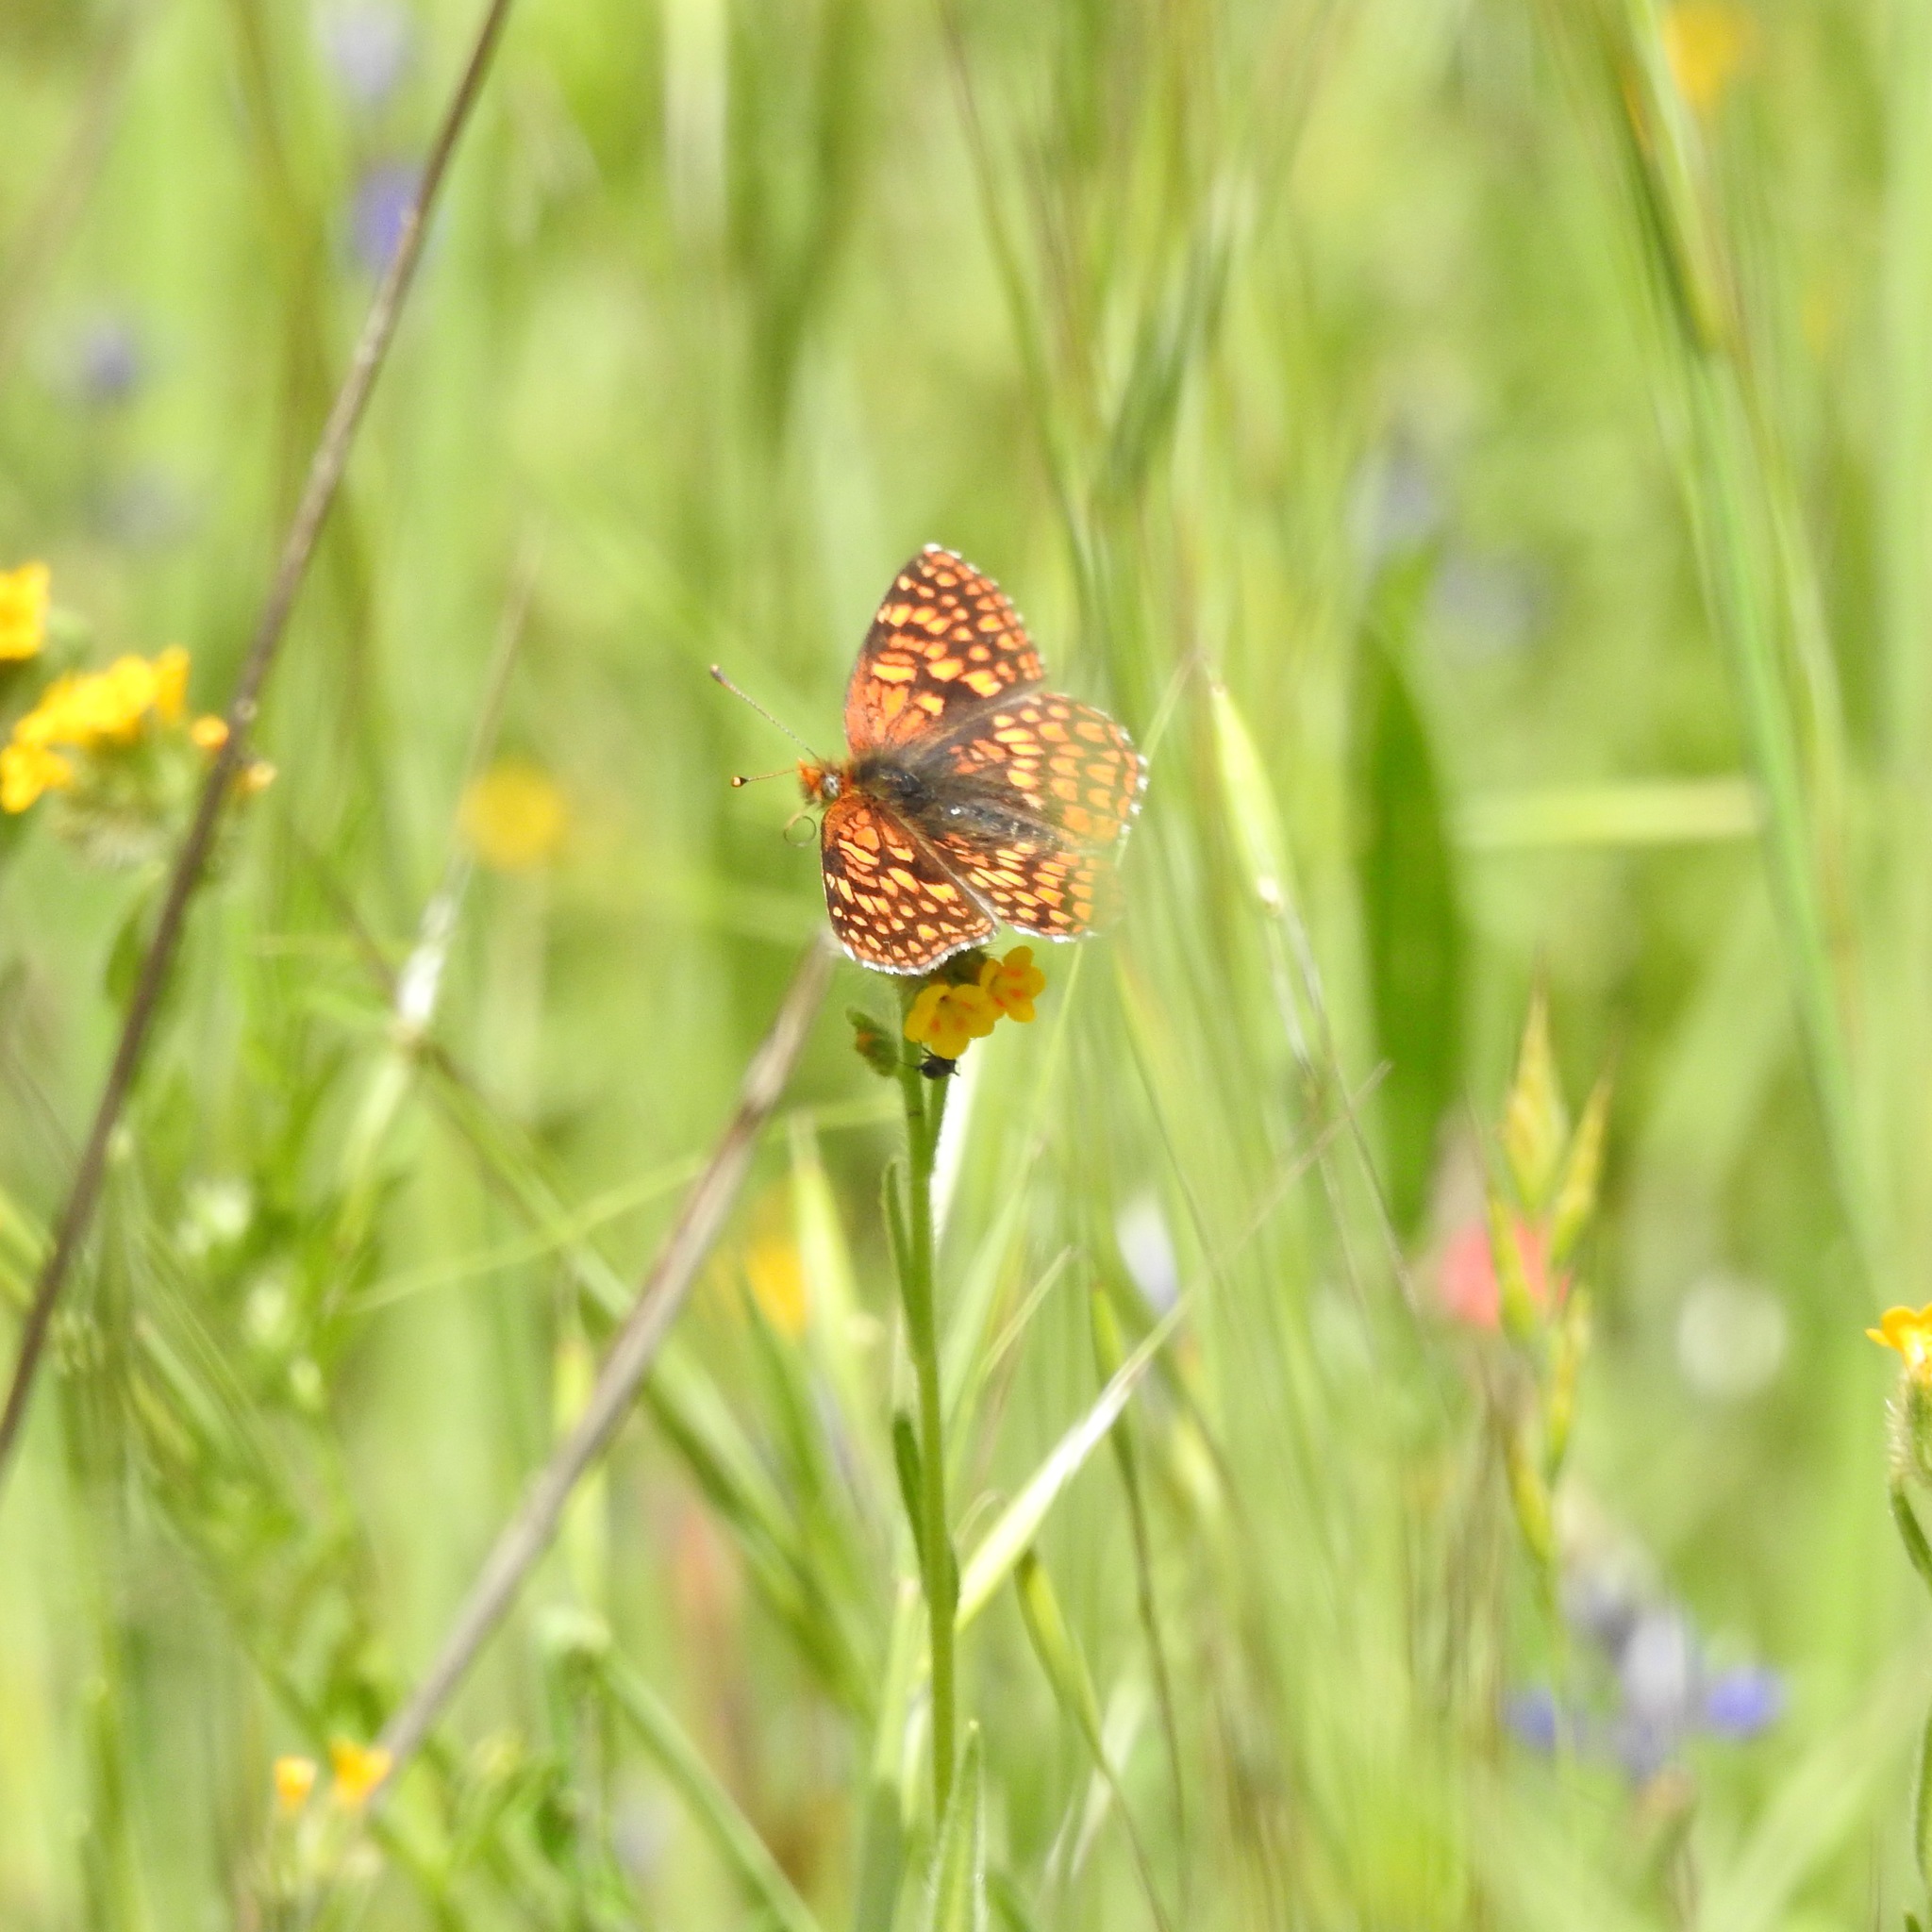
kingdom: Animalia
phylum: Arthropoda
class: Insecta
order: Lepidoptera
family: Nymphalidae
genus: Chlosyne
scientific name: Chlosyne palla
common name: Northern checkerspot
